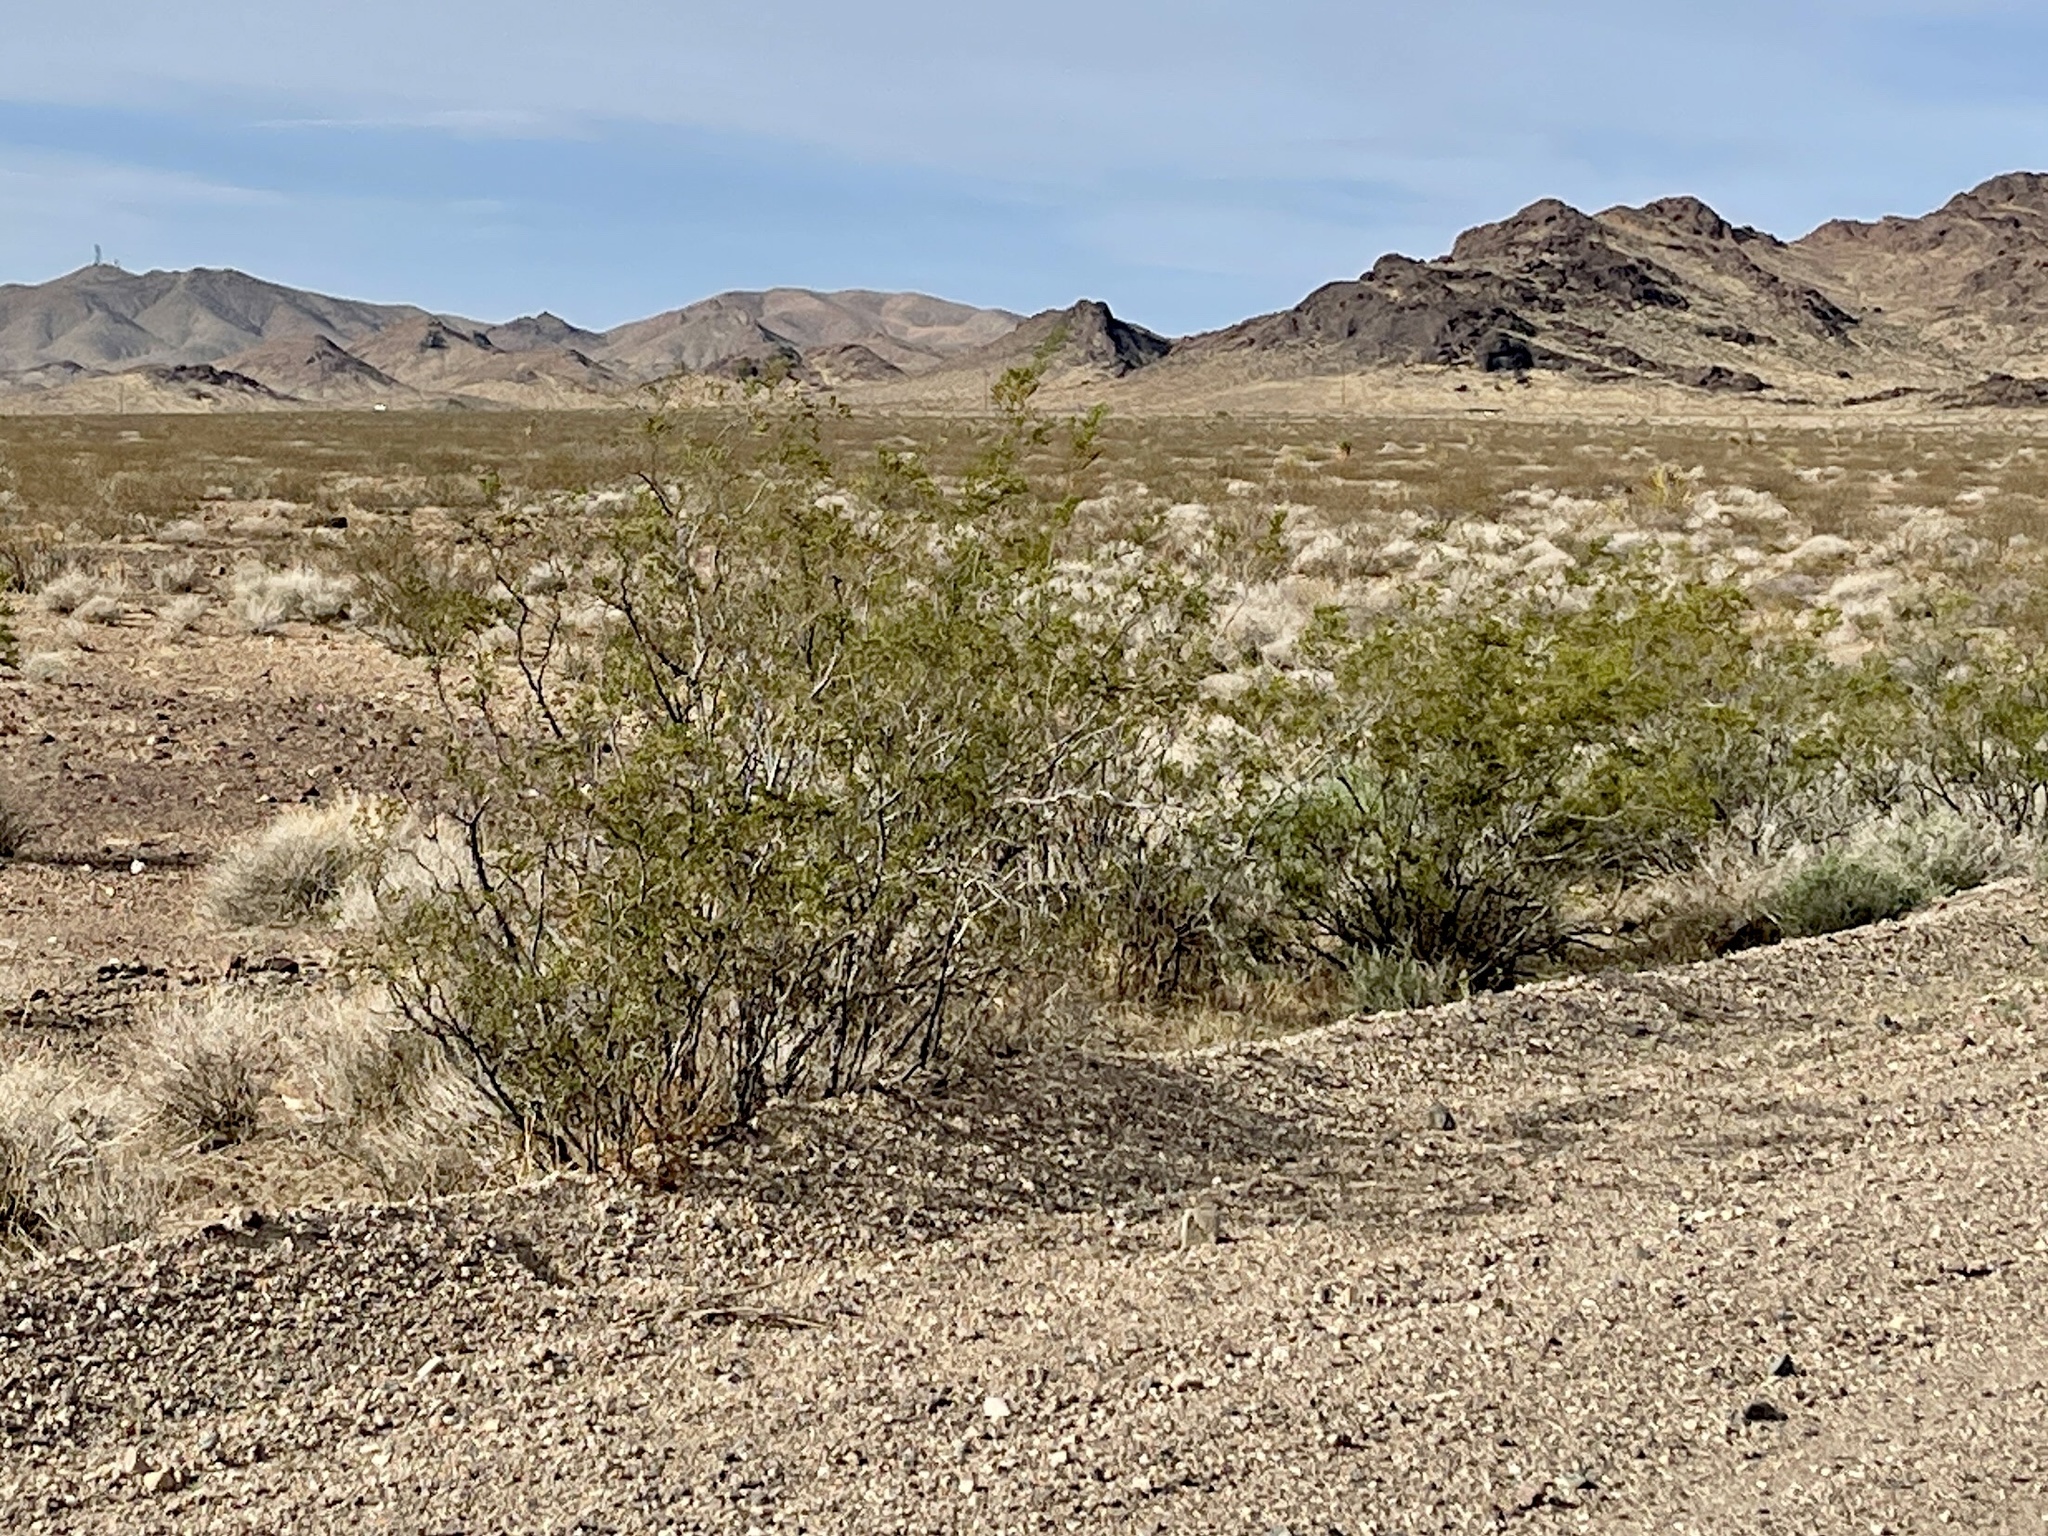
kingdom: Plantae
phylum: Tracheophyta
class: Magnoliopsida
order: Zygophyllales
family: Zygophyllaceae
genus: Larrea
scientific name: Larrea tridentata
